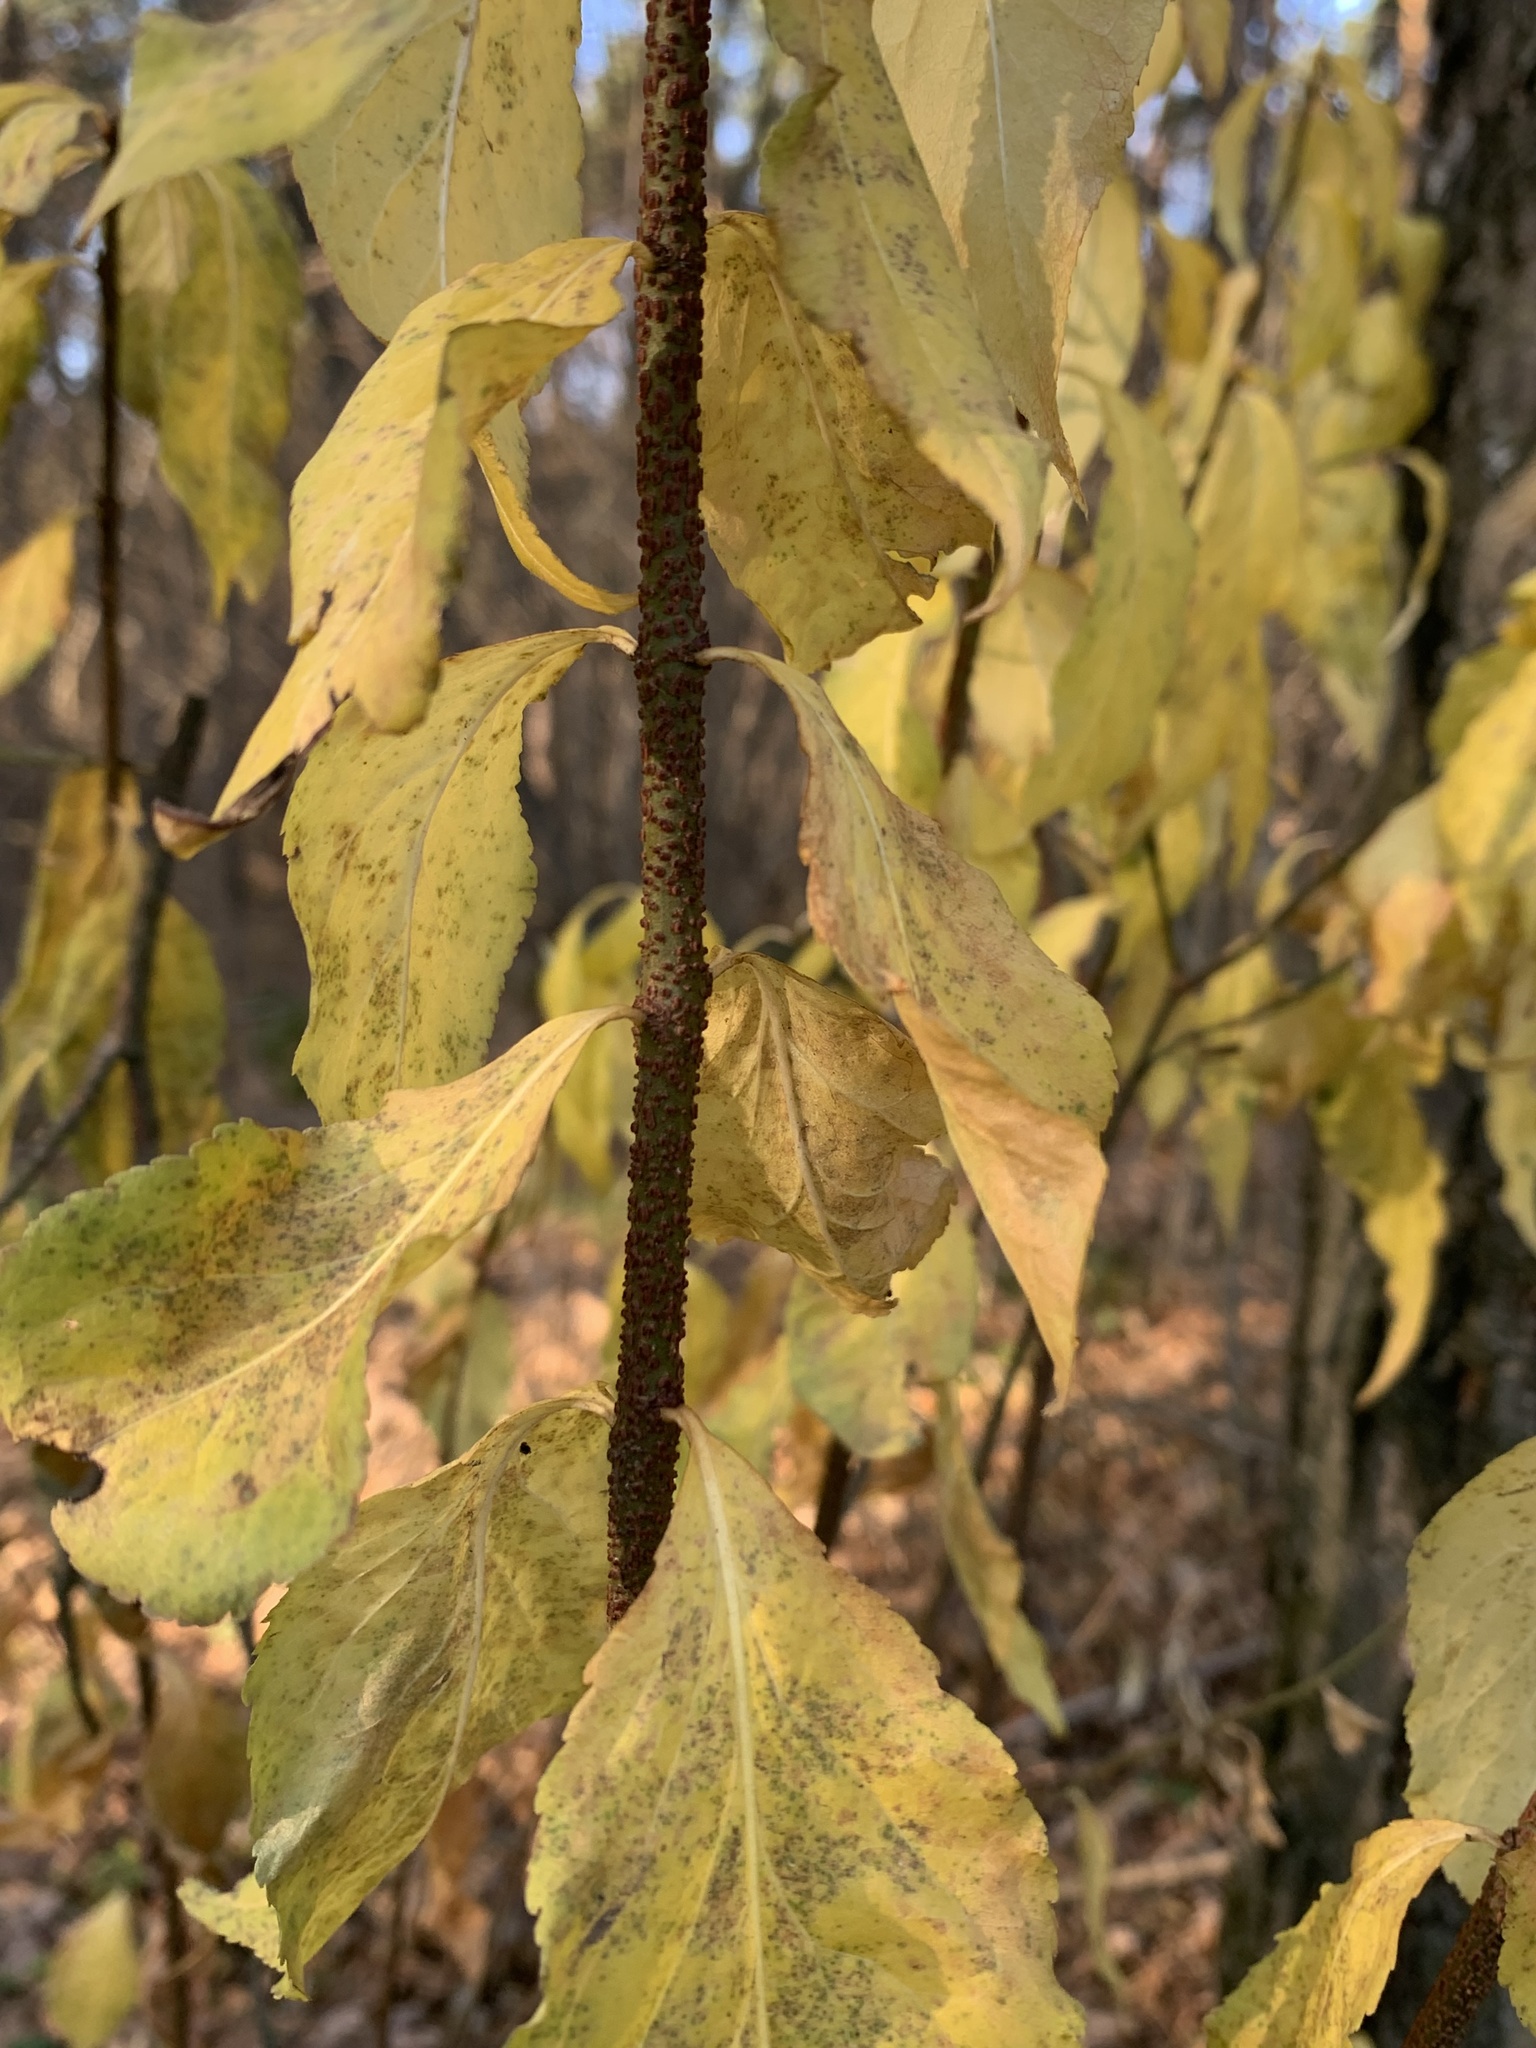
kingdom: Plantae
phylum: Tracheophyta
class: Magnoliopsida
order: Celastrales
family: Celastraceae
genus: Euonymus
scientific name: Euonymus verrucosus
